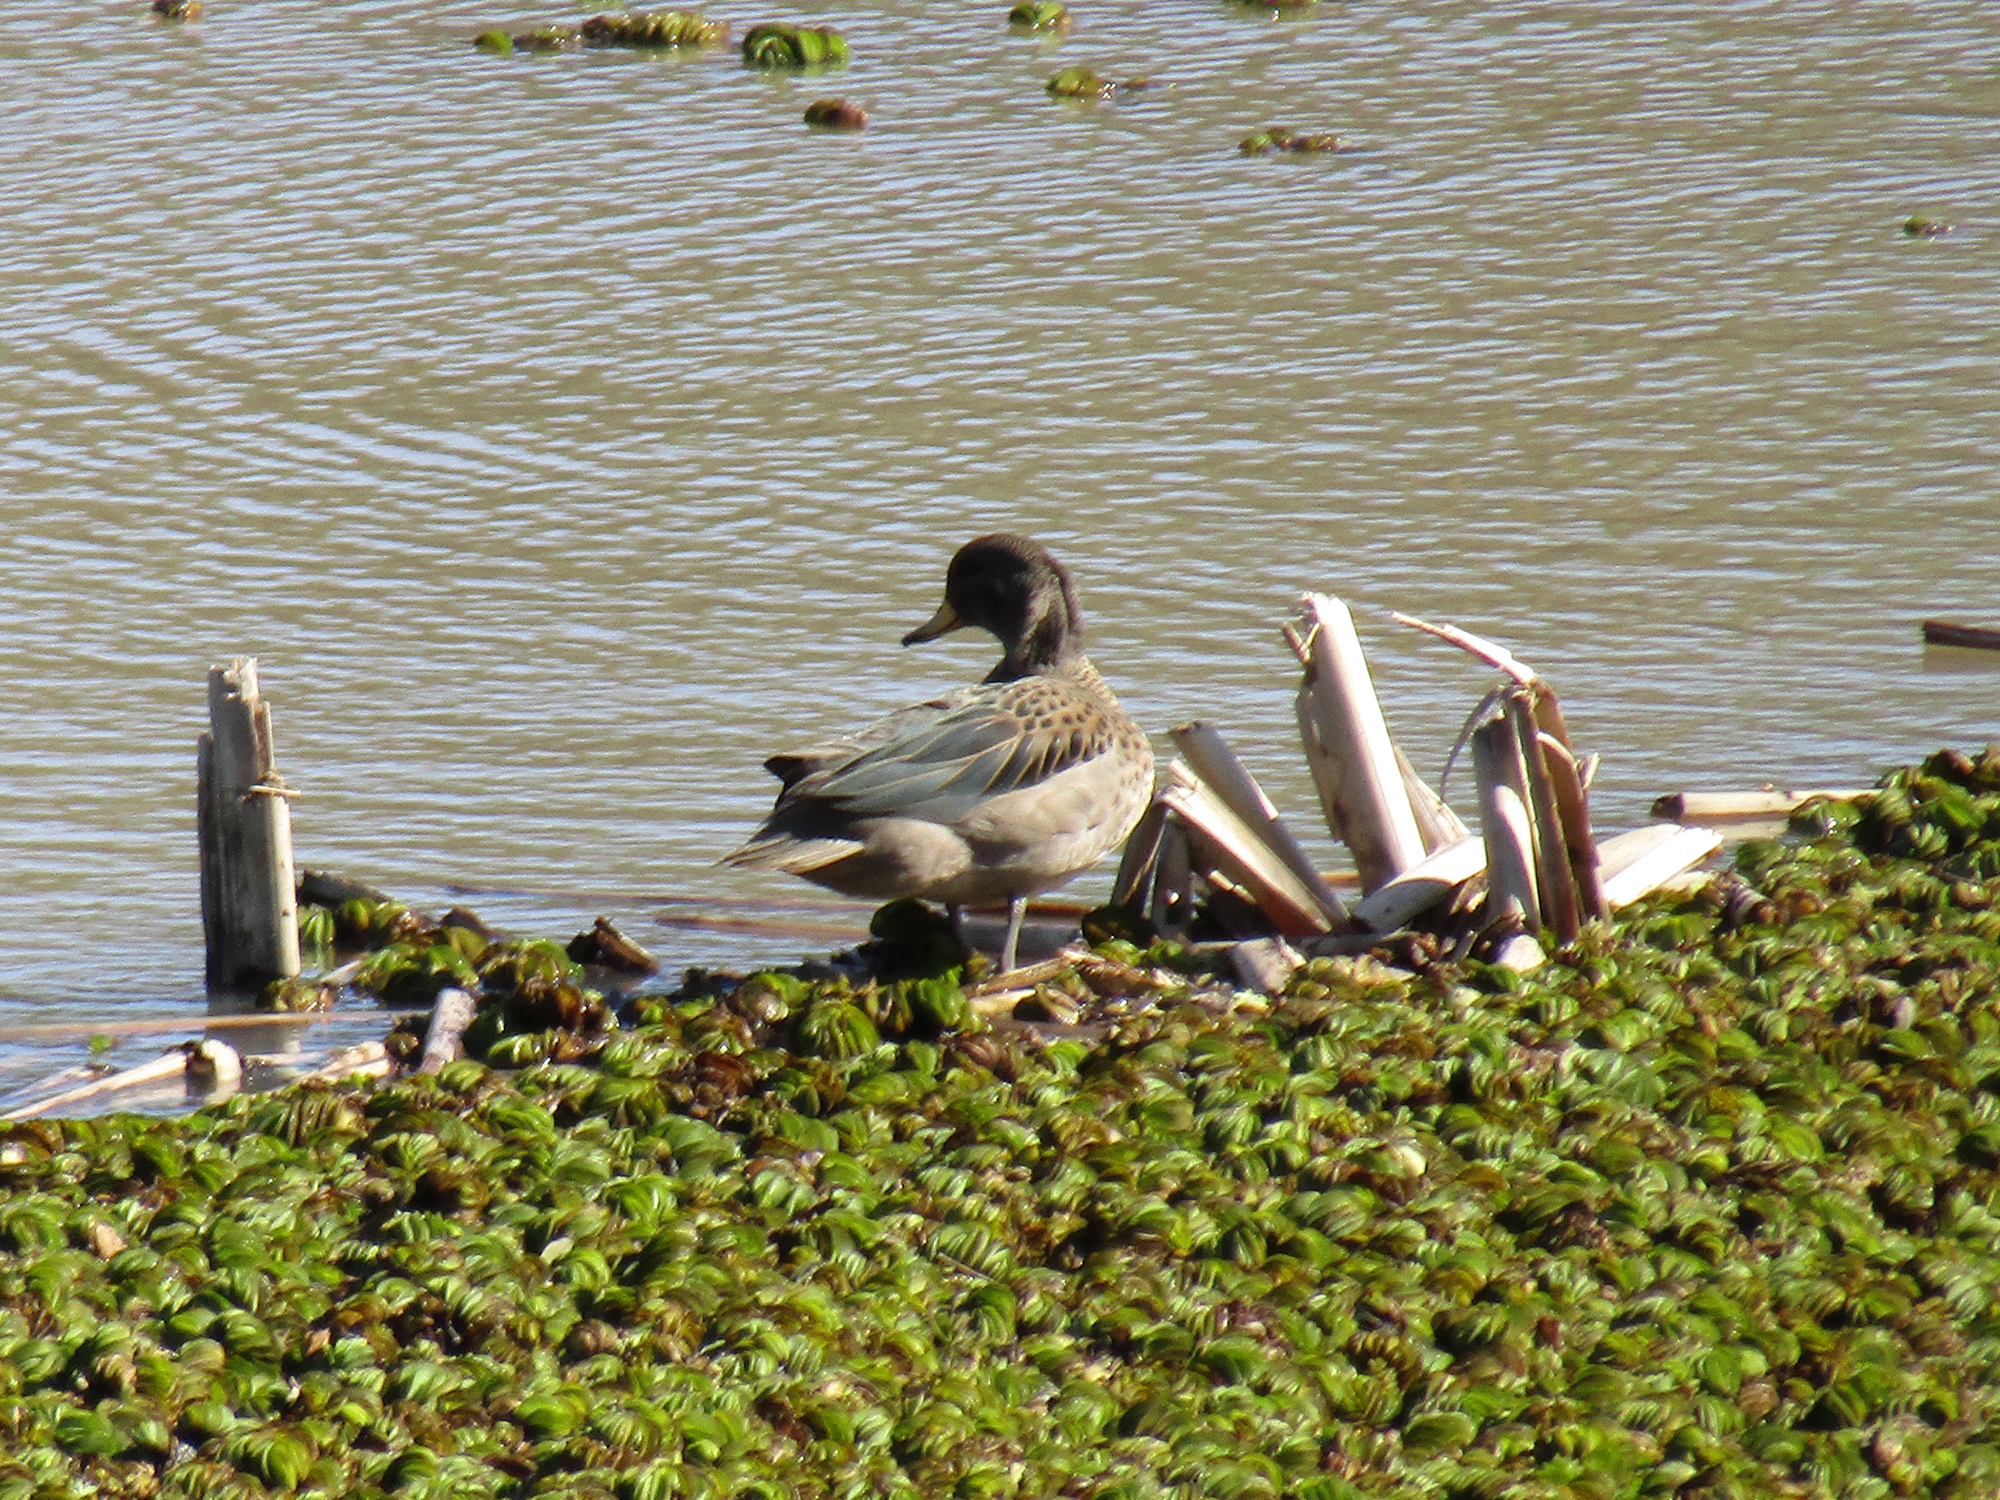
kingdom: Animalia
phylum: Chordata
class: Aves
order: Anseriformes
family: Anatidae
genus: Anas
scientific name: Anas flavirostris
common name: Yellow-billed teal
